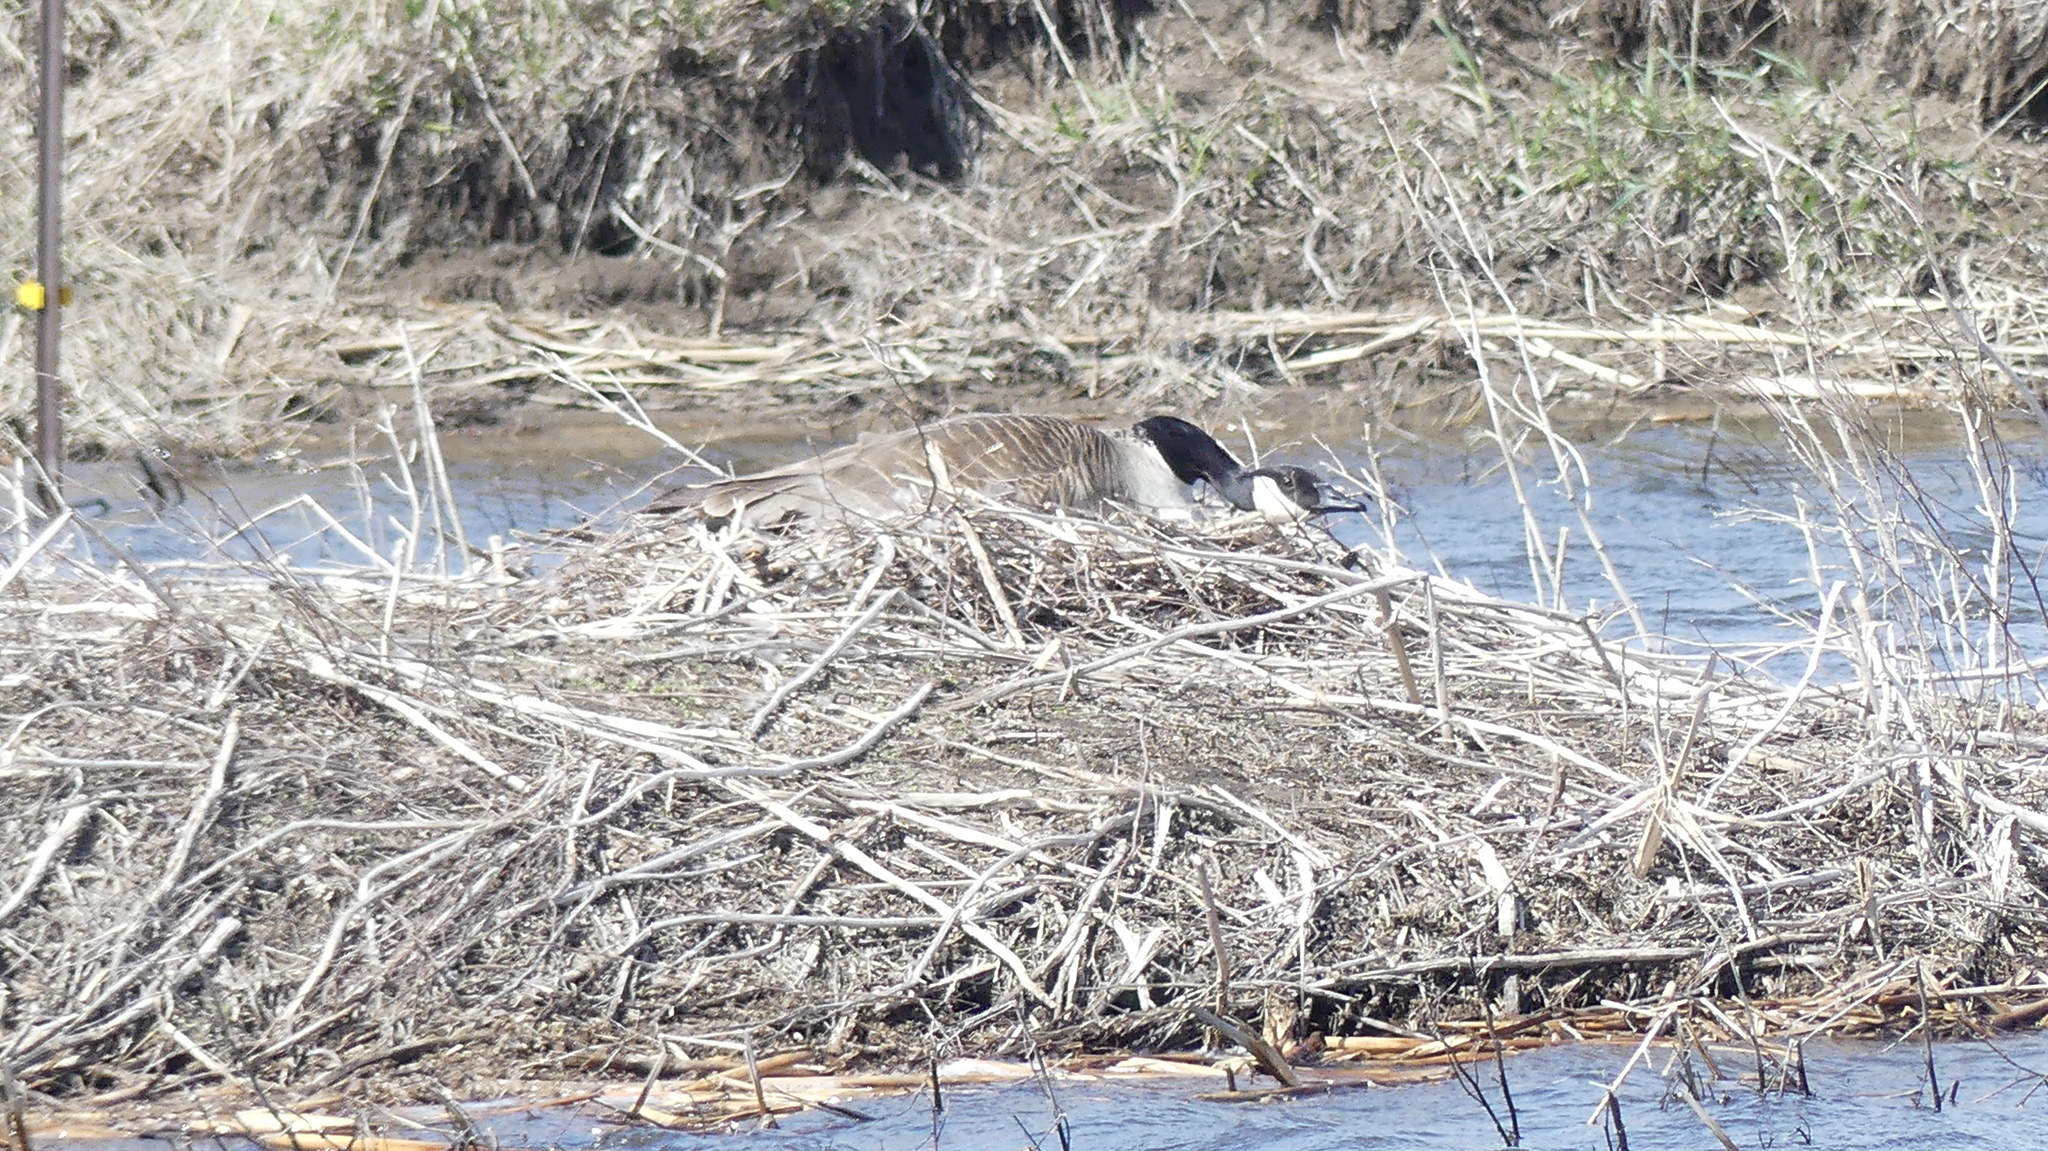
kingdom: Animalia
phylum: Chordata
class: Aves
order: Anseriformes
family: Anatidae
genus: Branta
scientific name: Branta canadensis
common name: Canada goose
